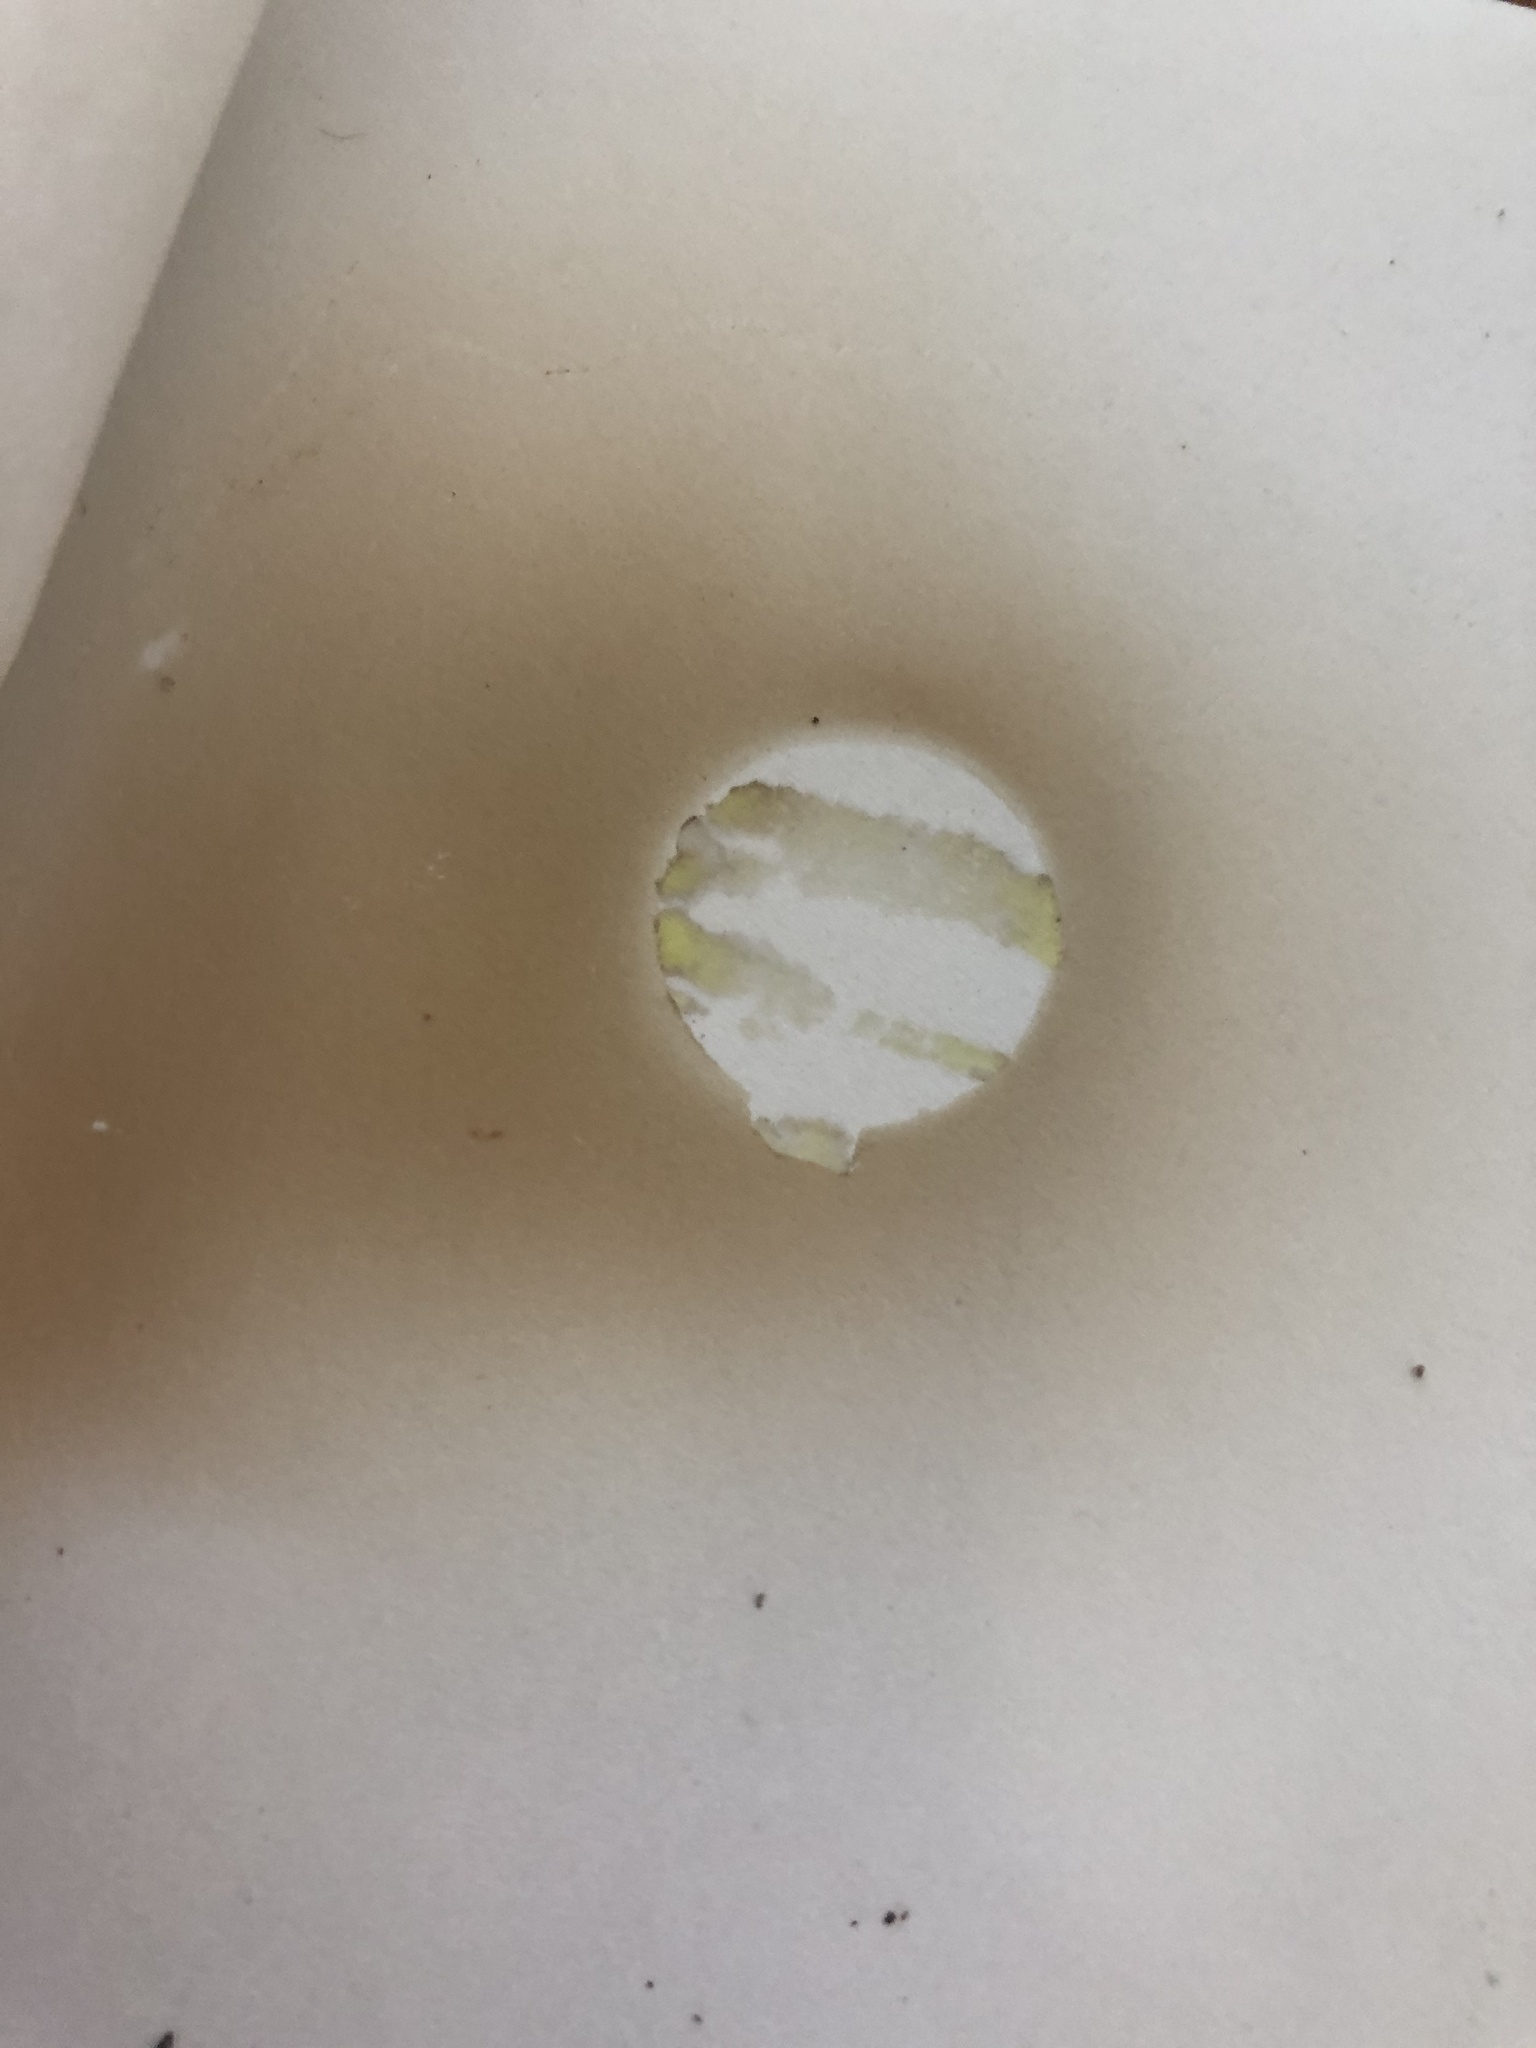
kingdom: Fungi
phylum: Basidiomycota
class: Agaricomycetes
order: Boletales
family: Suillaceae
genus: Suillus
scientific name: Suillus cothurnatus
